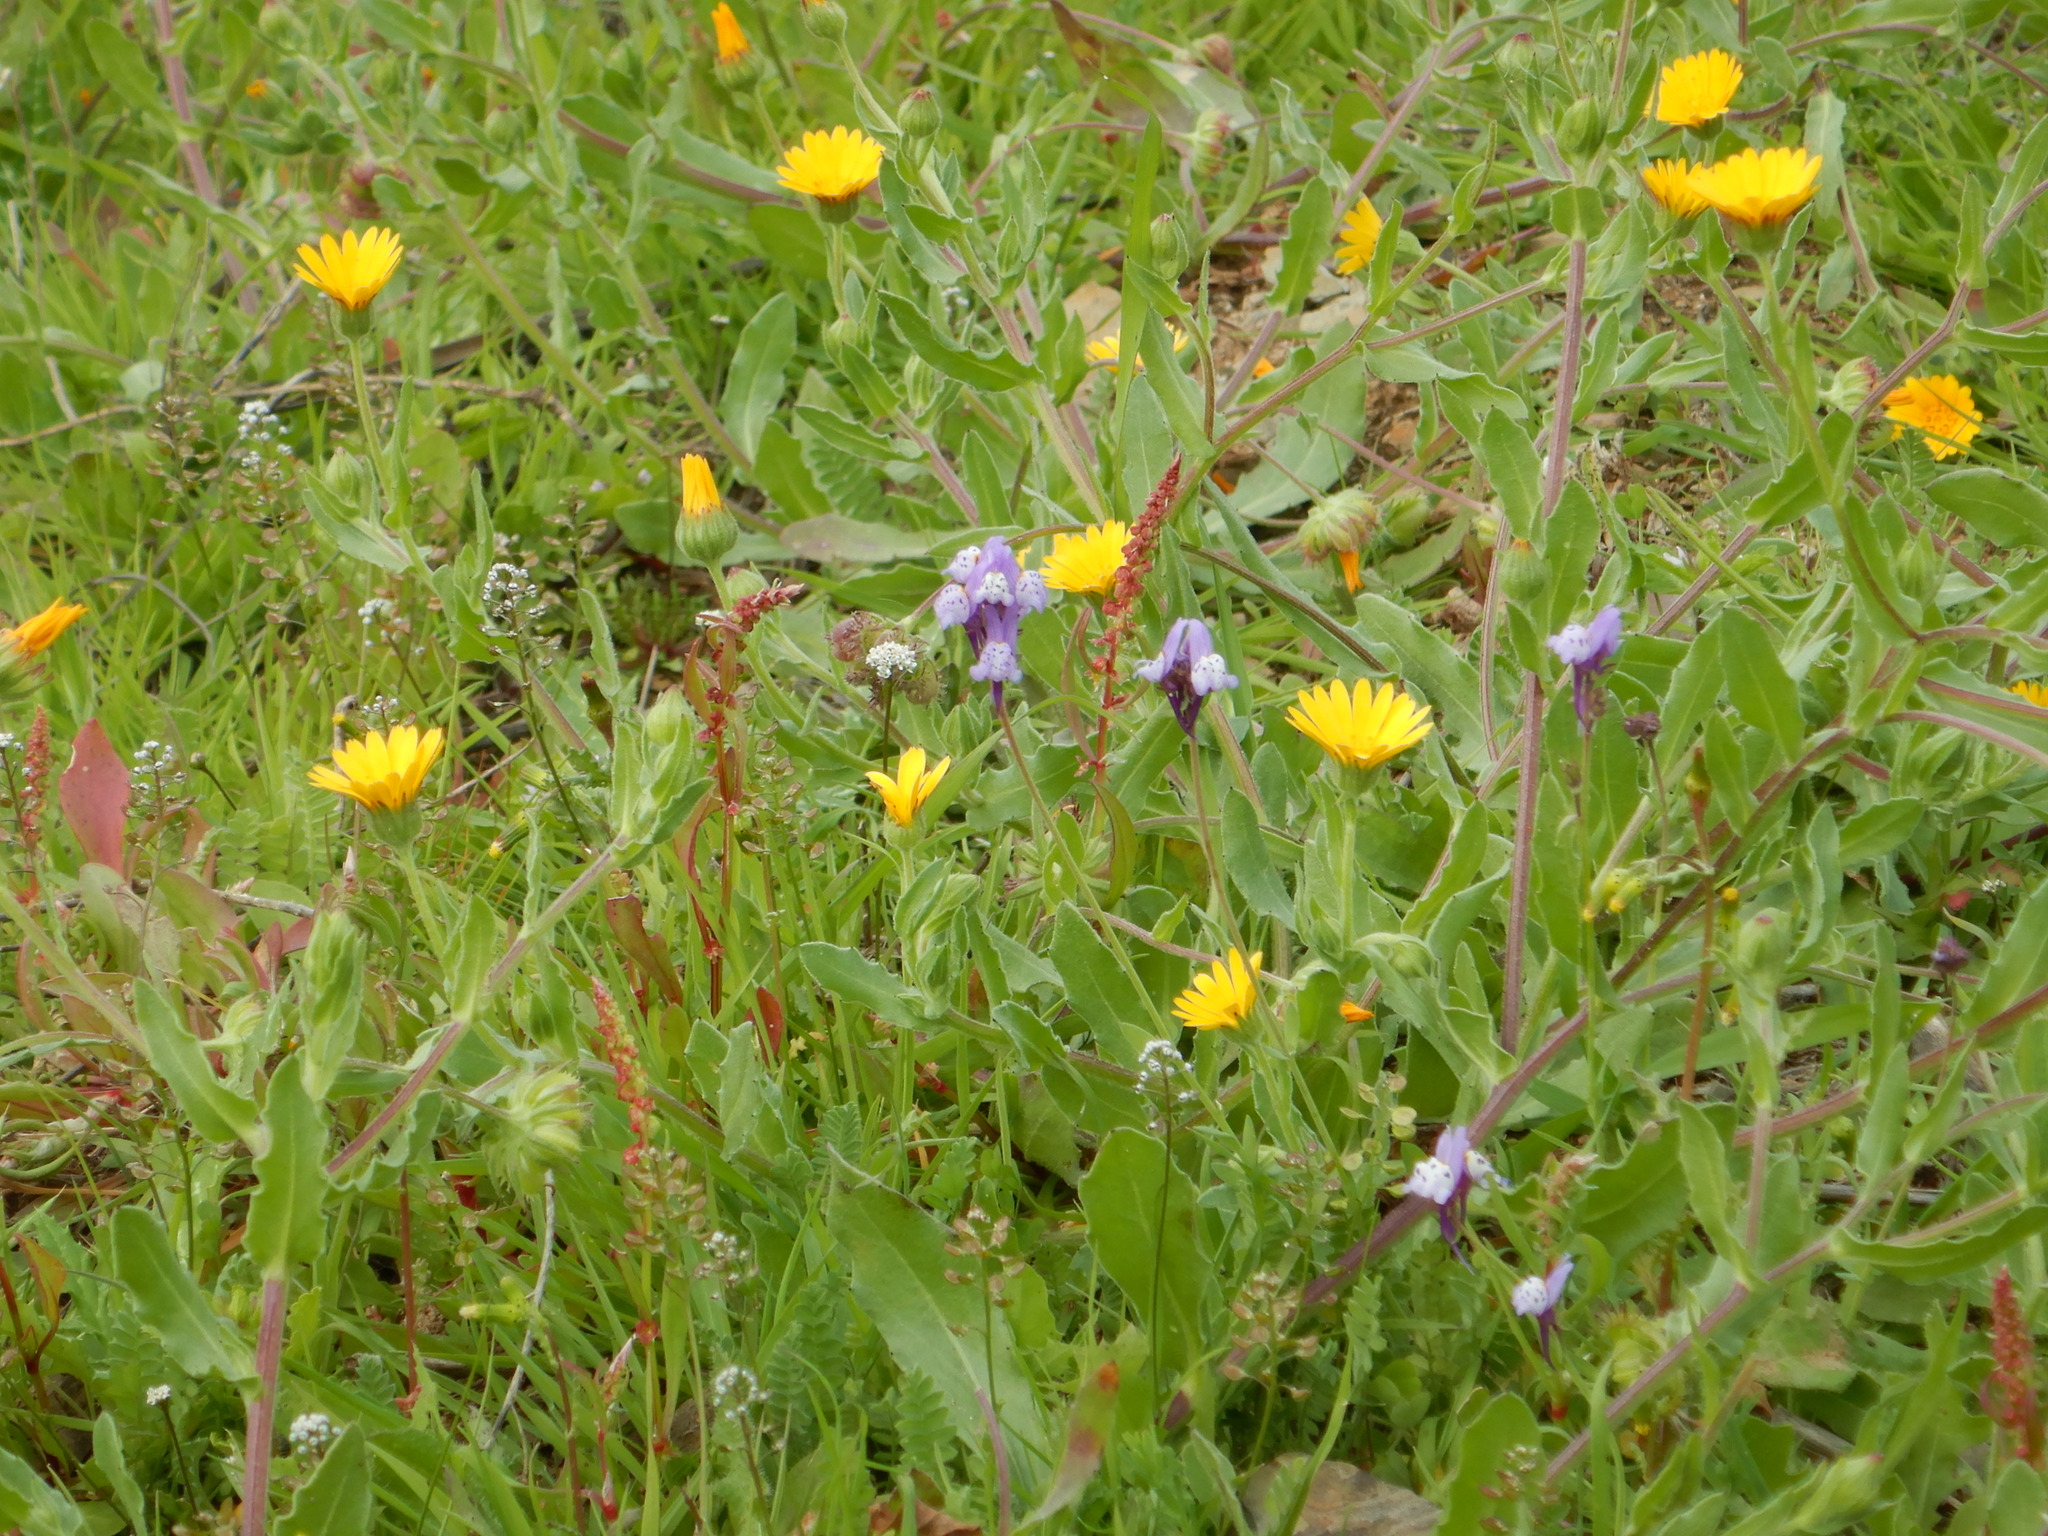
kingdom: Plantae
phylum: Tracheophyta
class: Magnoliopsida
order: Lamiales
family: Plantaginaceae
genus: Linaria
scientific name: Linaria amethystea
